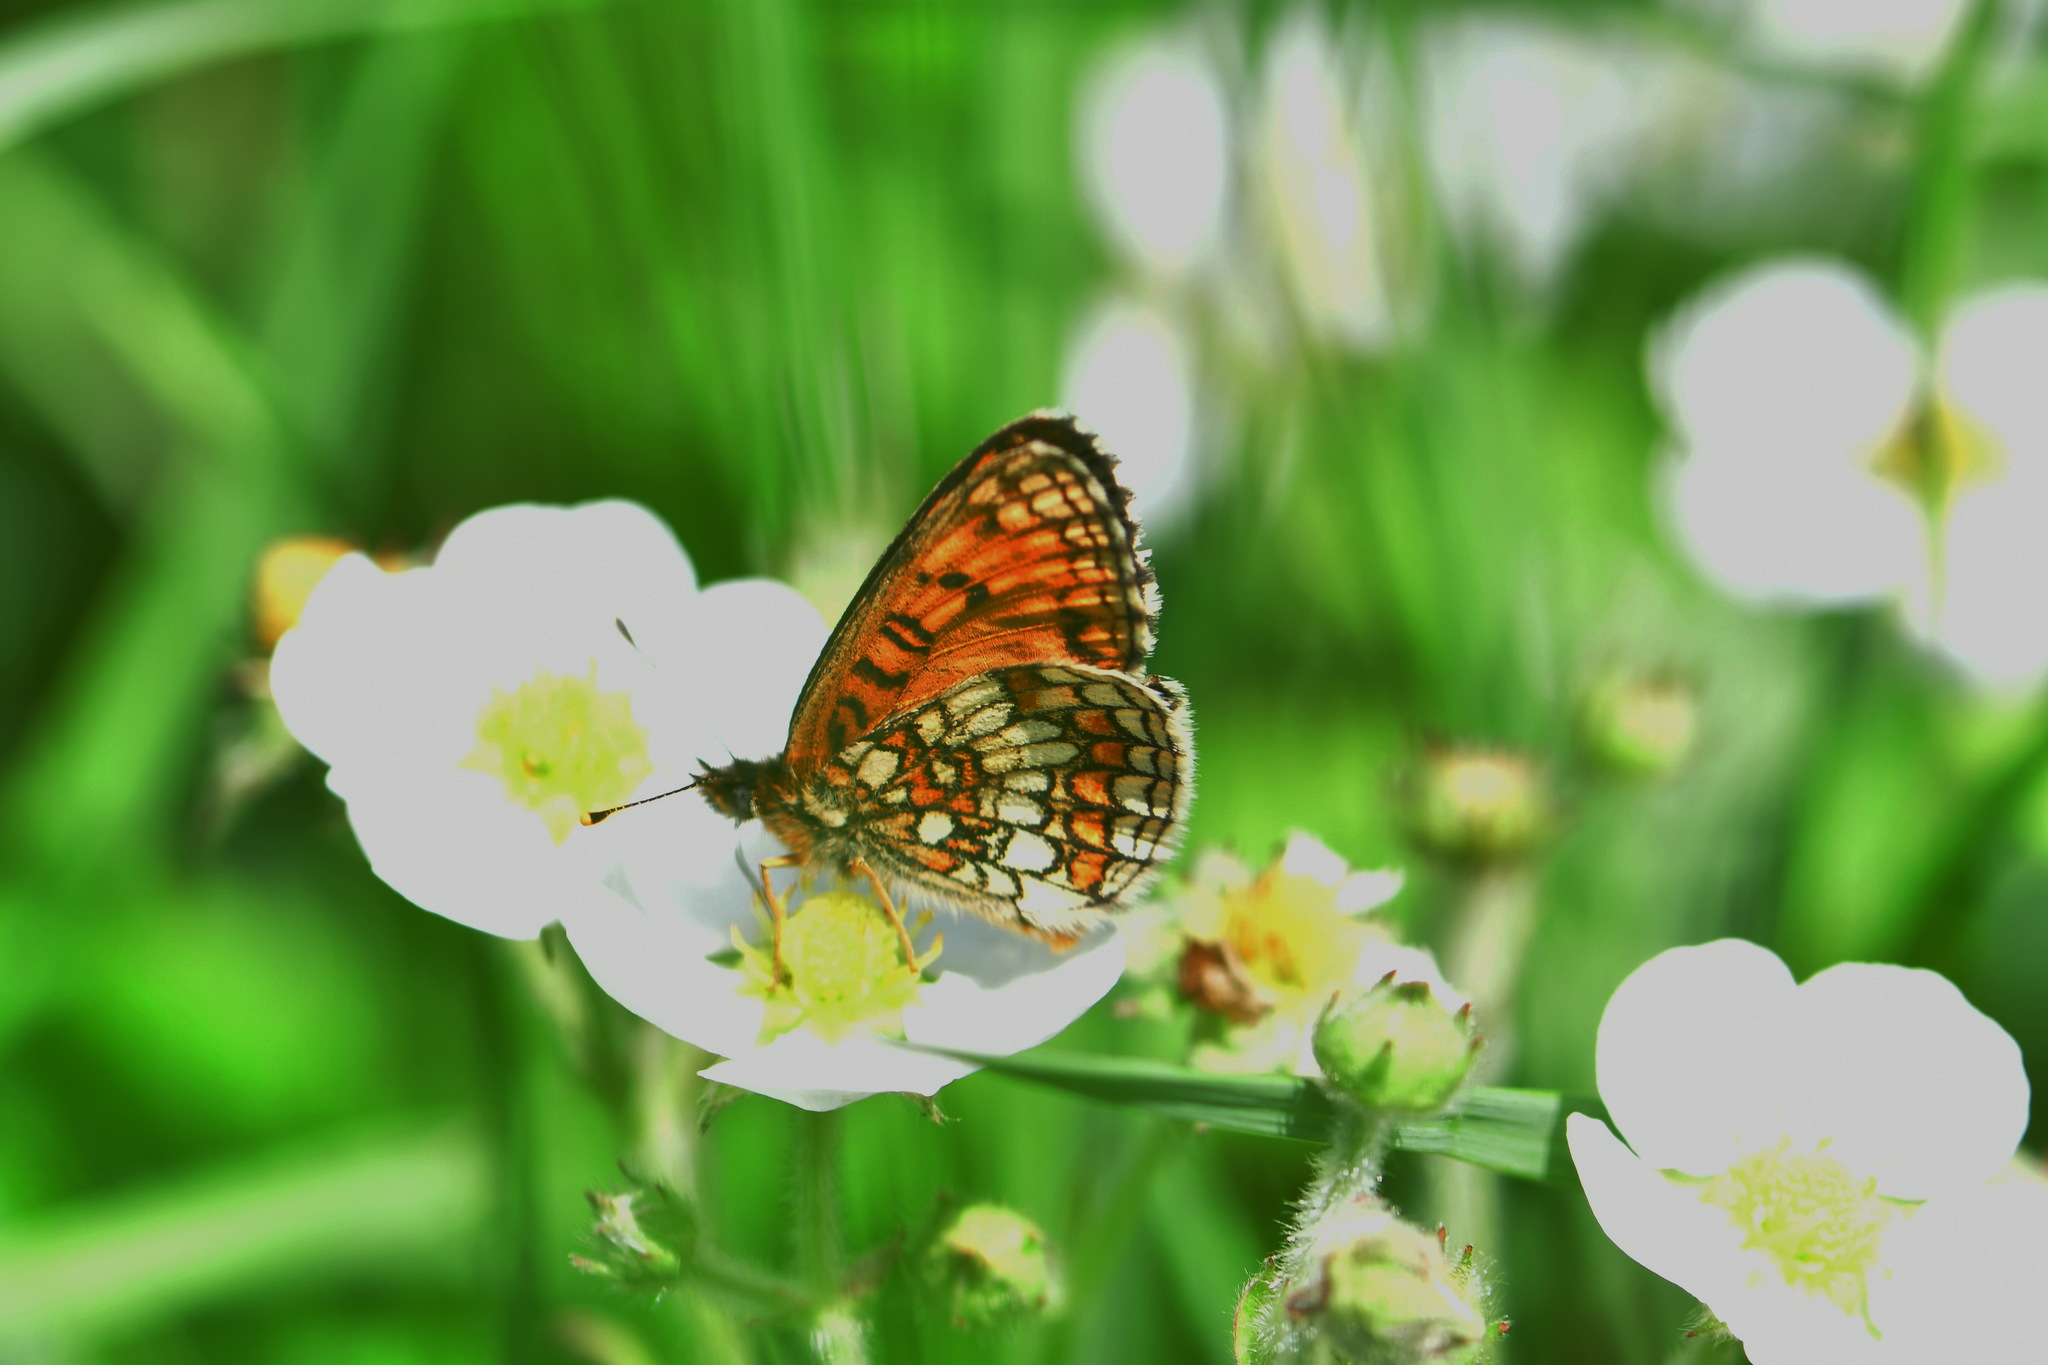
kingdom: Animalia
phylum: Arthropoda
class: Insecta
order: Lepidoptera
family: Nymphalidae
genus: Melitaea
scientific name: Melitaea athalia
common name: Heath fritillary
